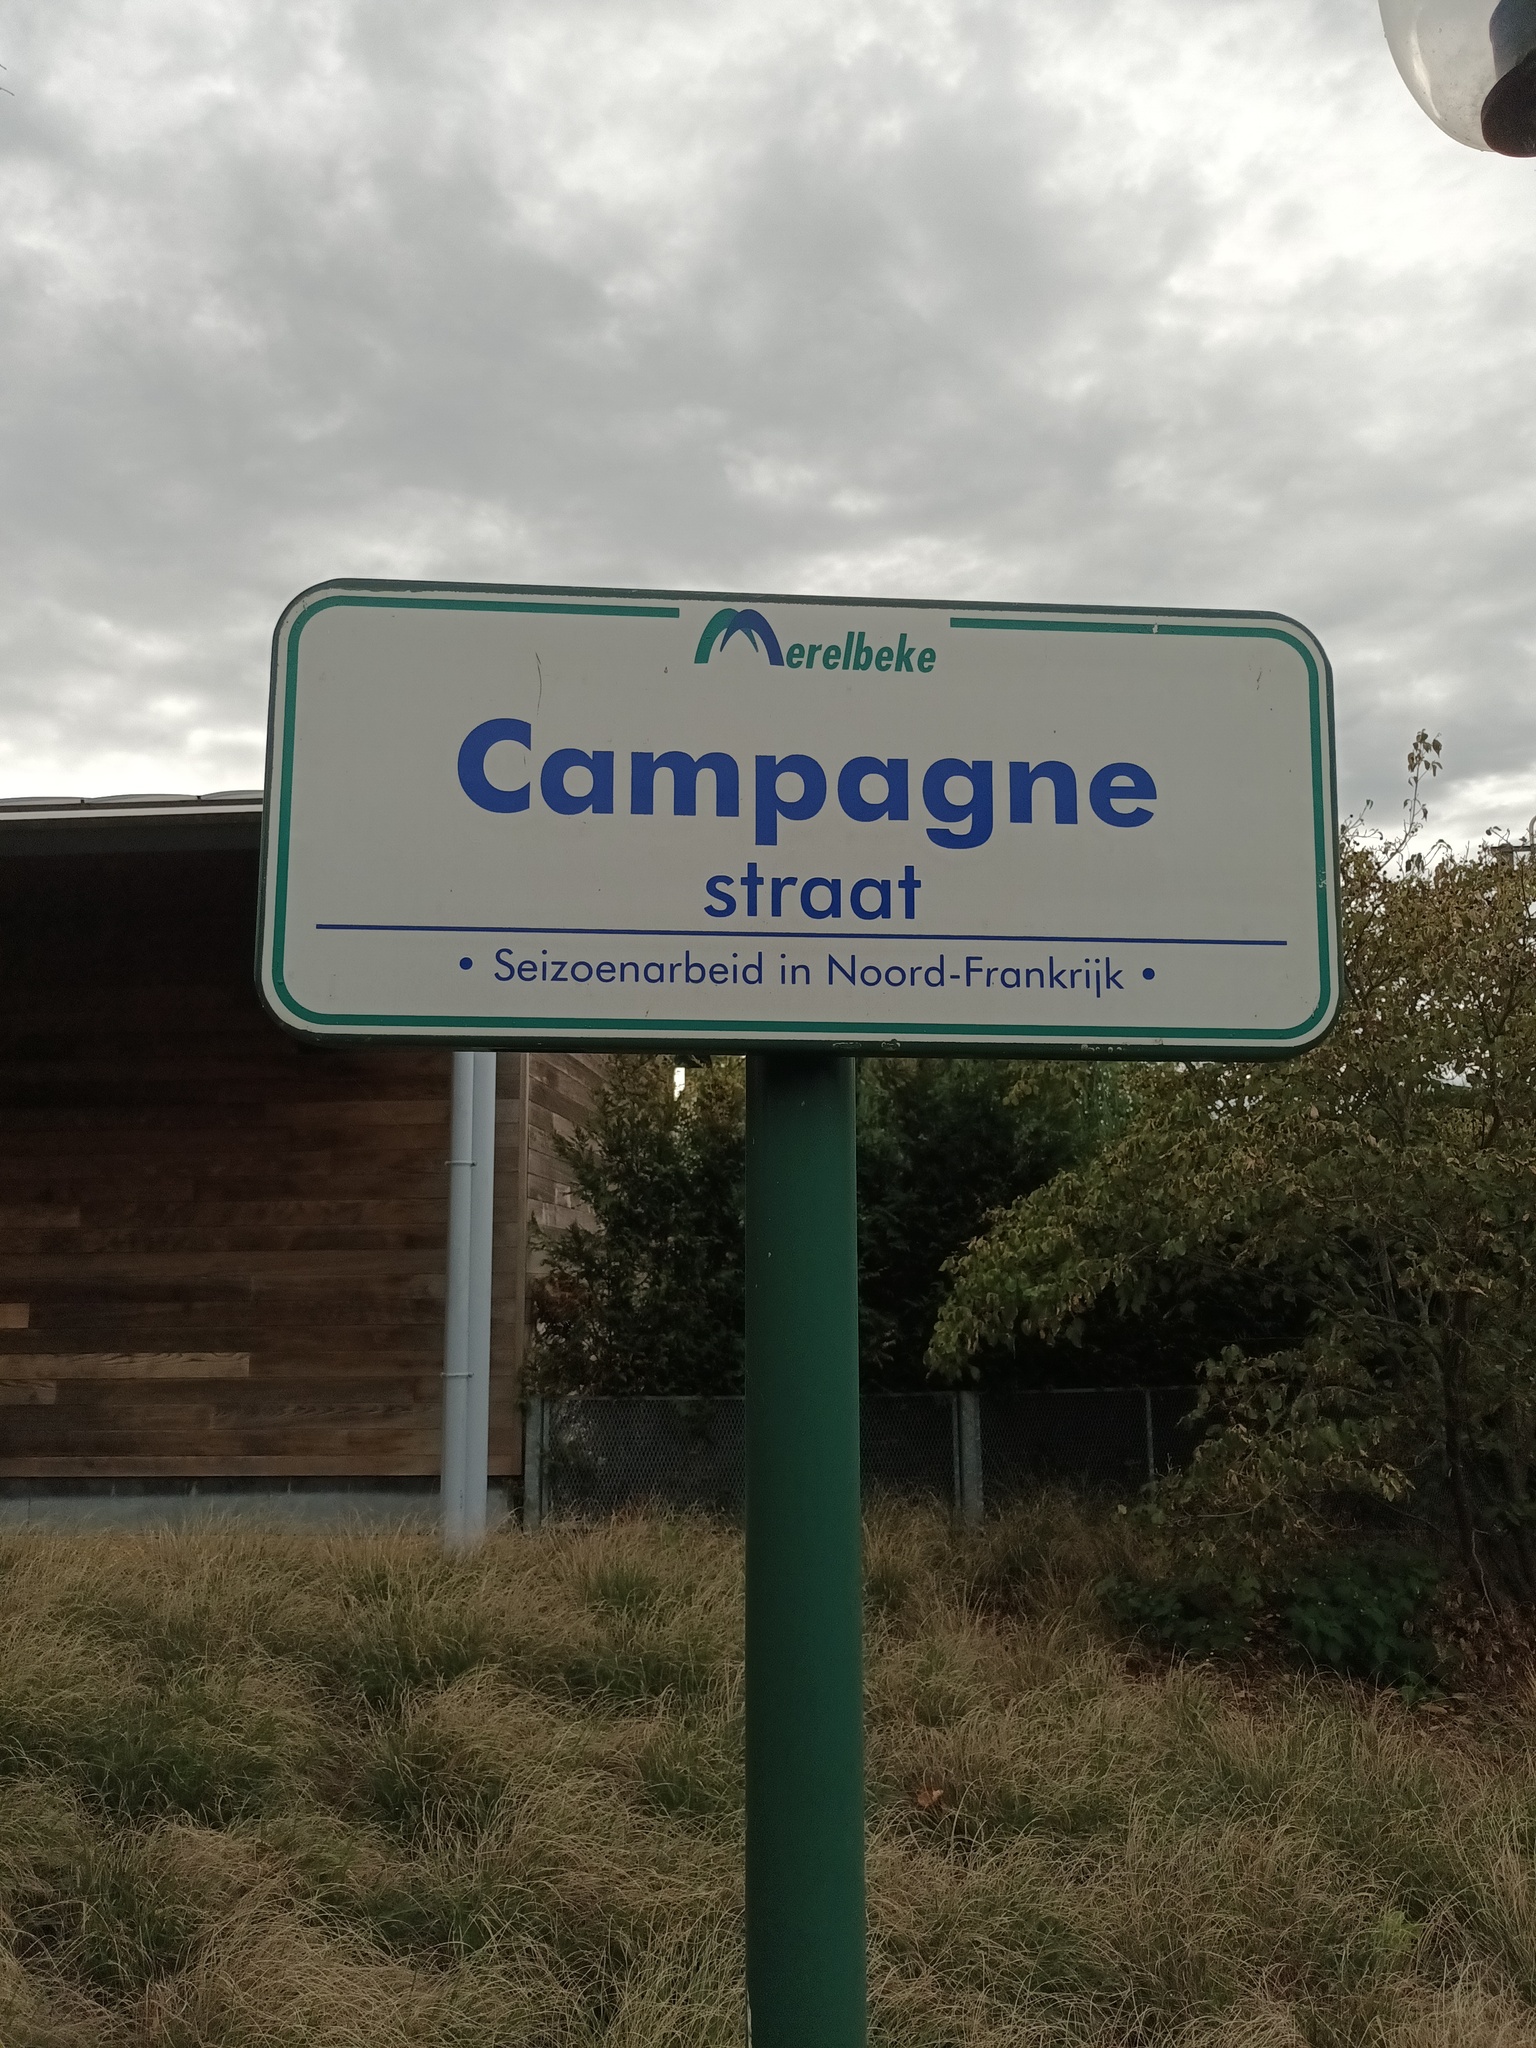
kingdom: Animalia
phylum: Arthropoda
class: Insecta
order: Hymenoptera
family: Vespidae
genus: Vespa
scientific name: Vespa velutina
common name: Asian hornet
